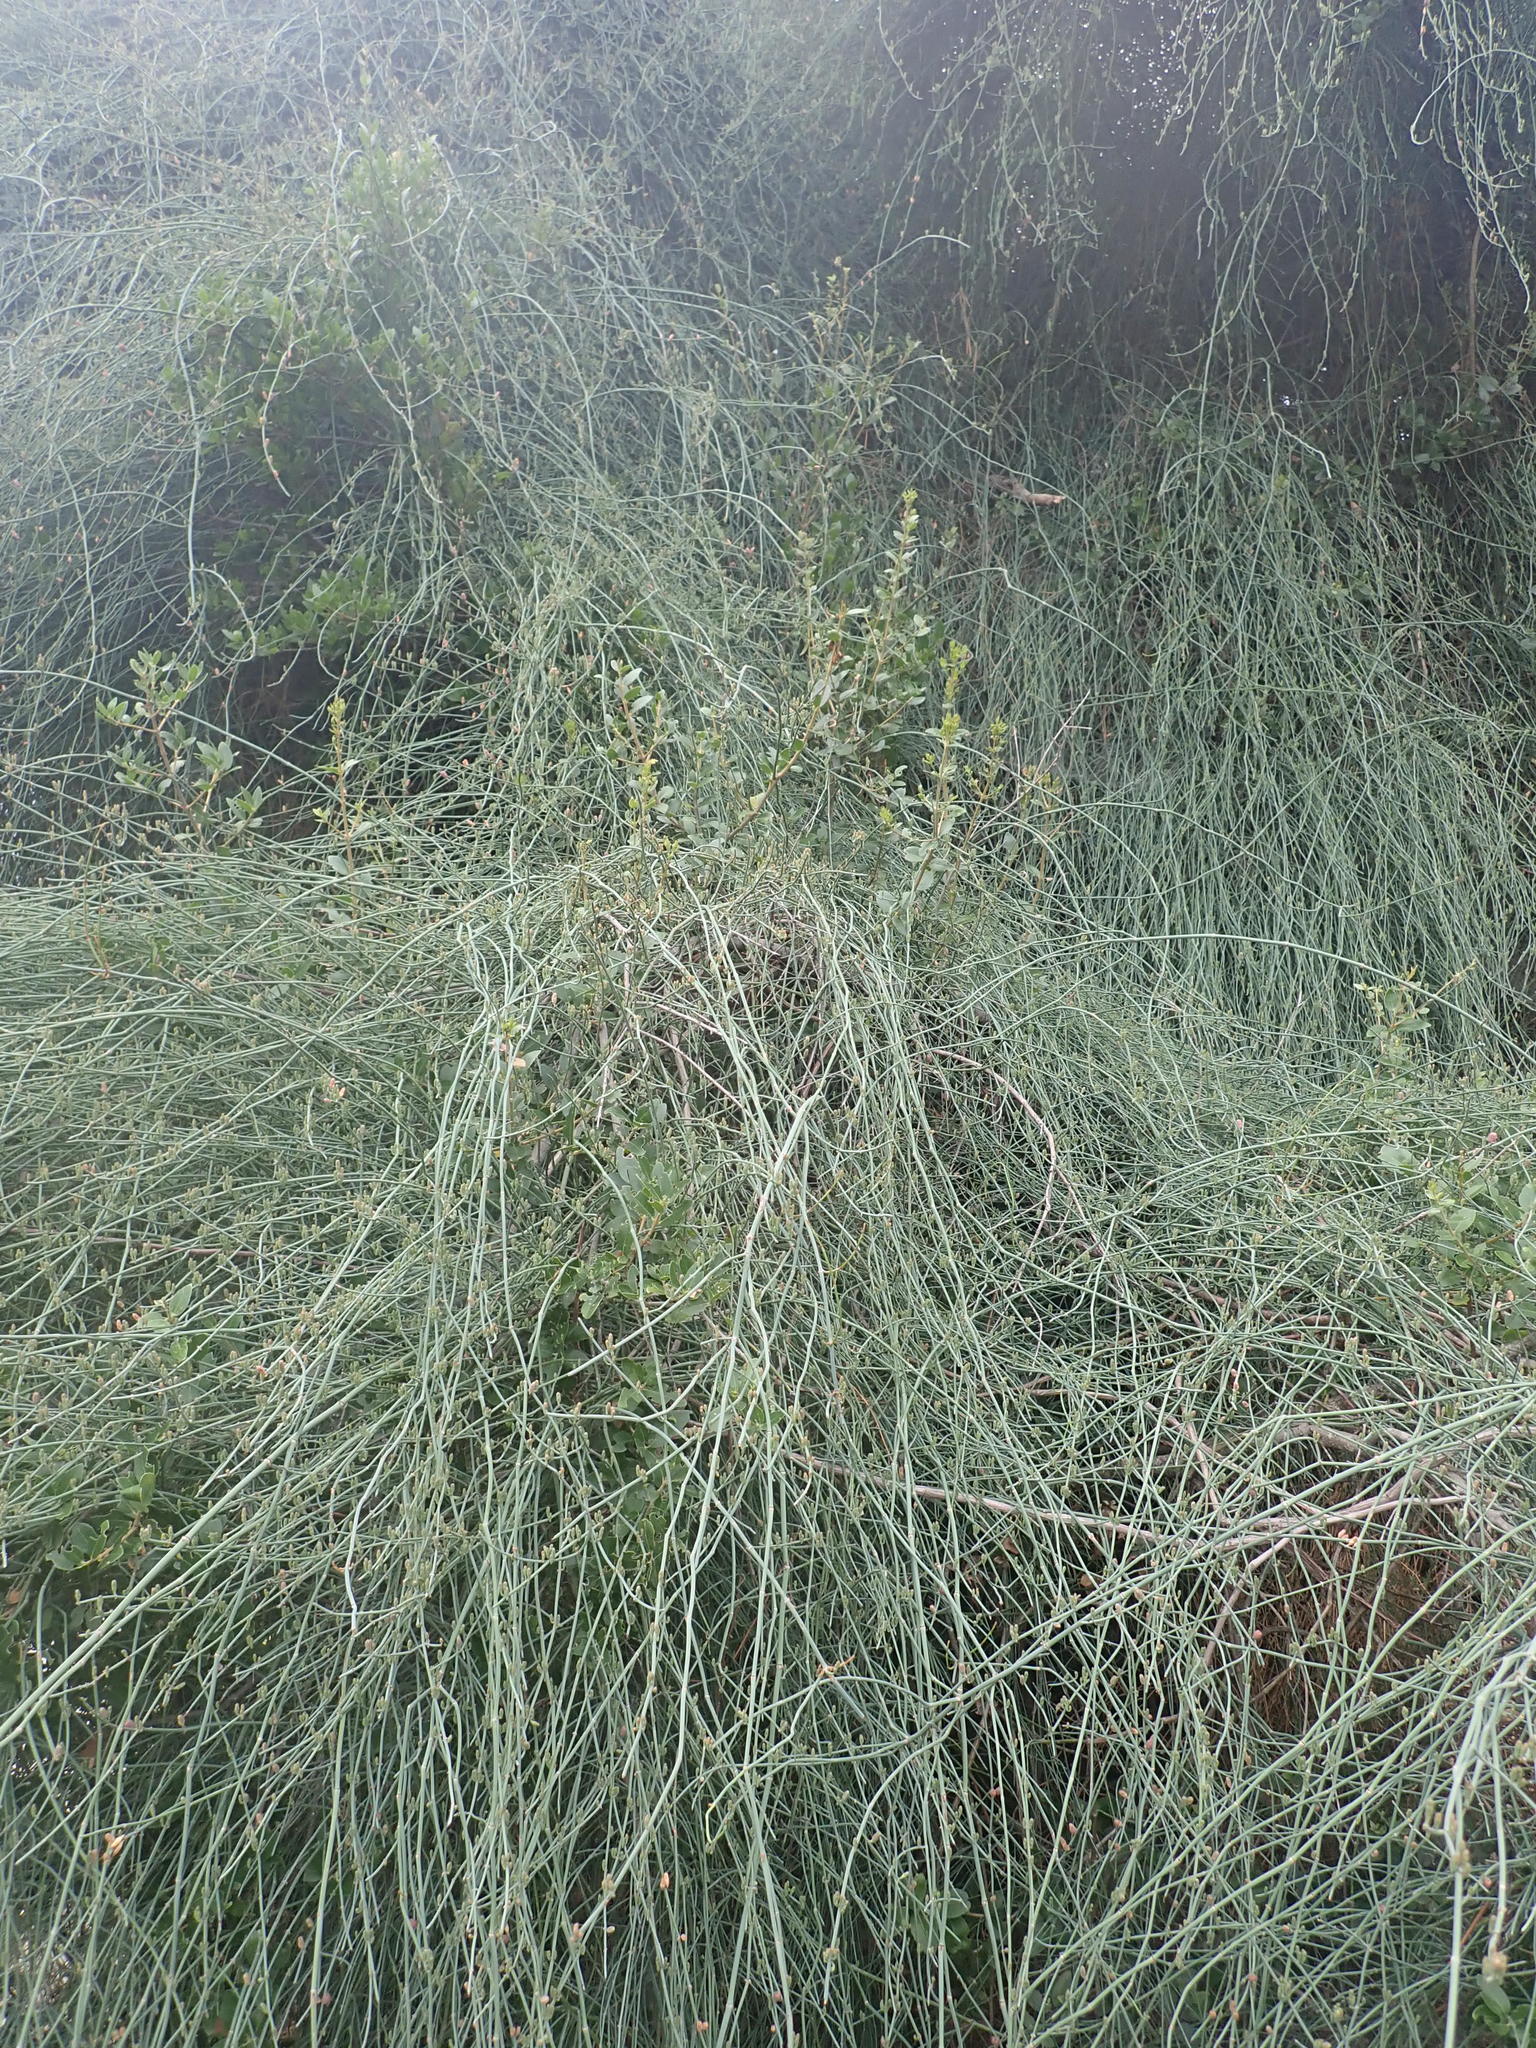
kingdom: Plantae
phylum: Tracheophyta
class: Gnetopsida
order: Ephedrales
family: Ephedraceae
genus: Ephedra
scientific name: Ephedra foeminea
